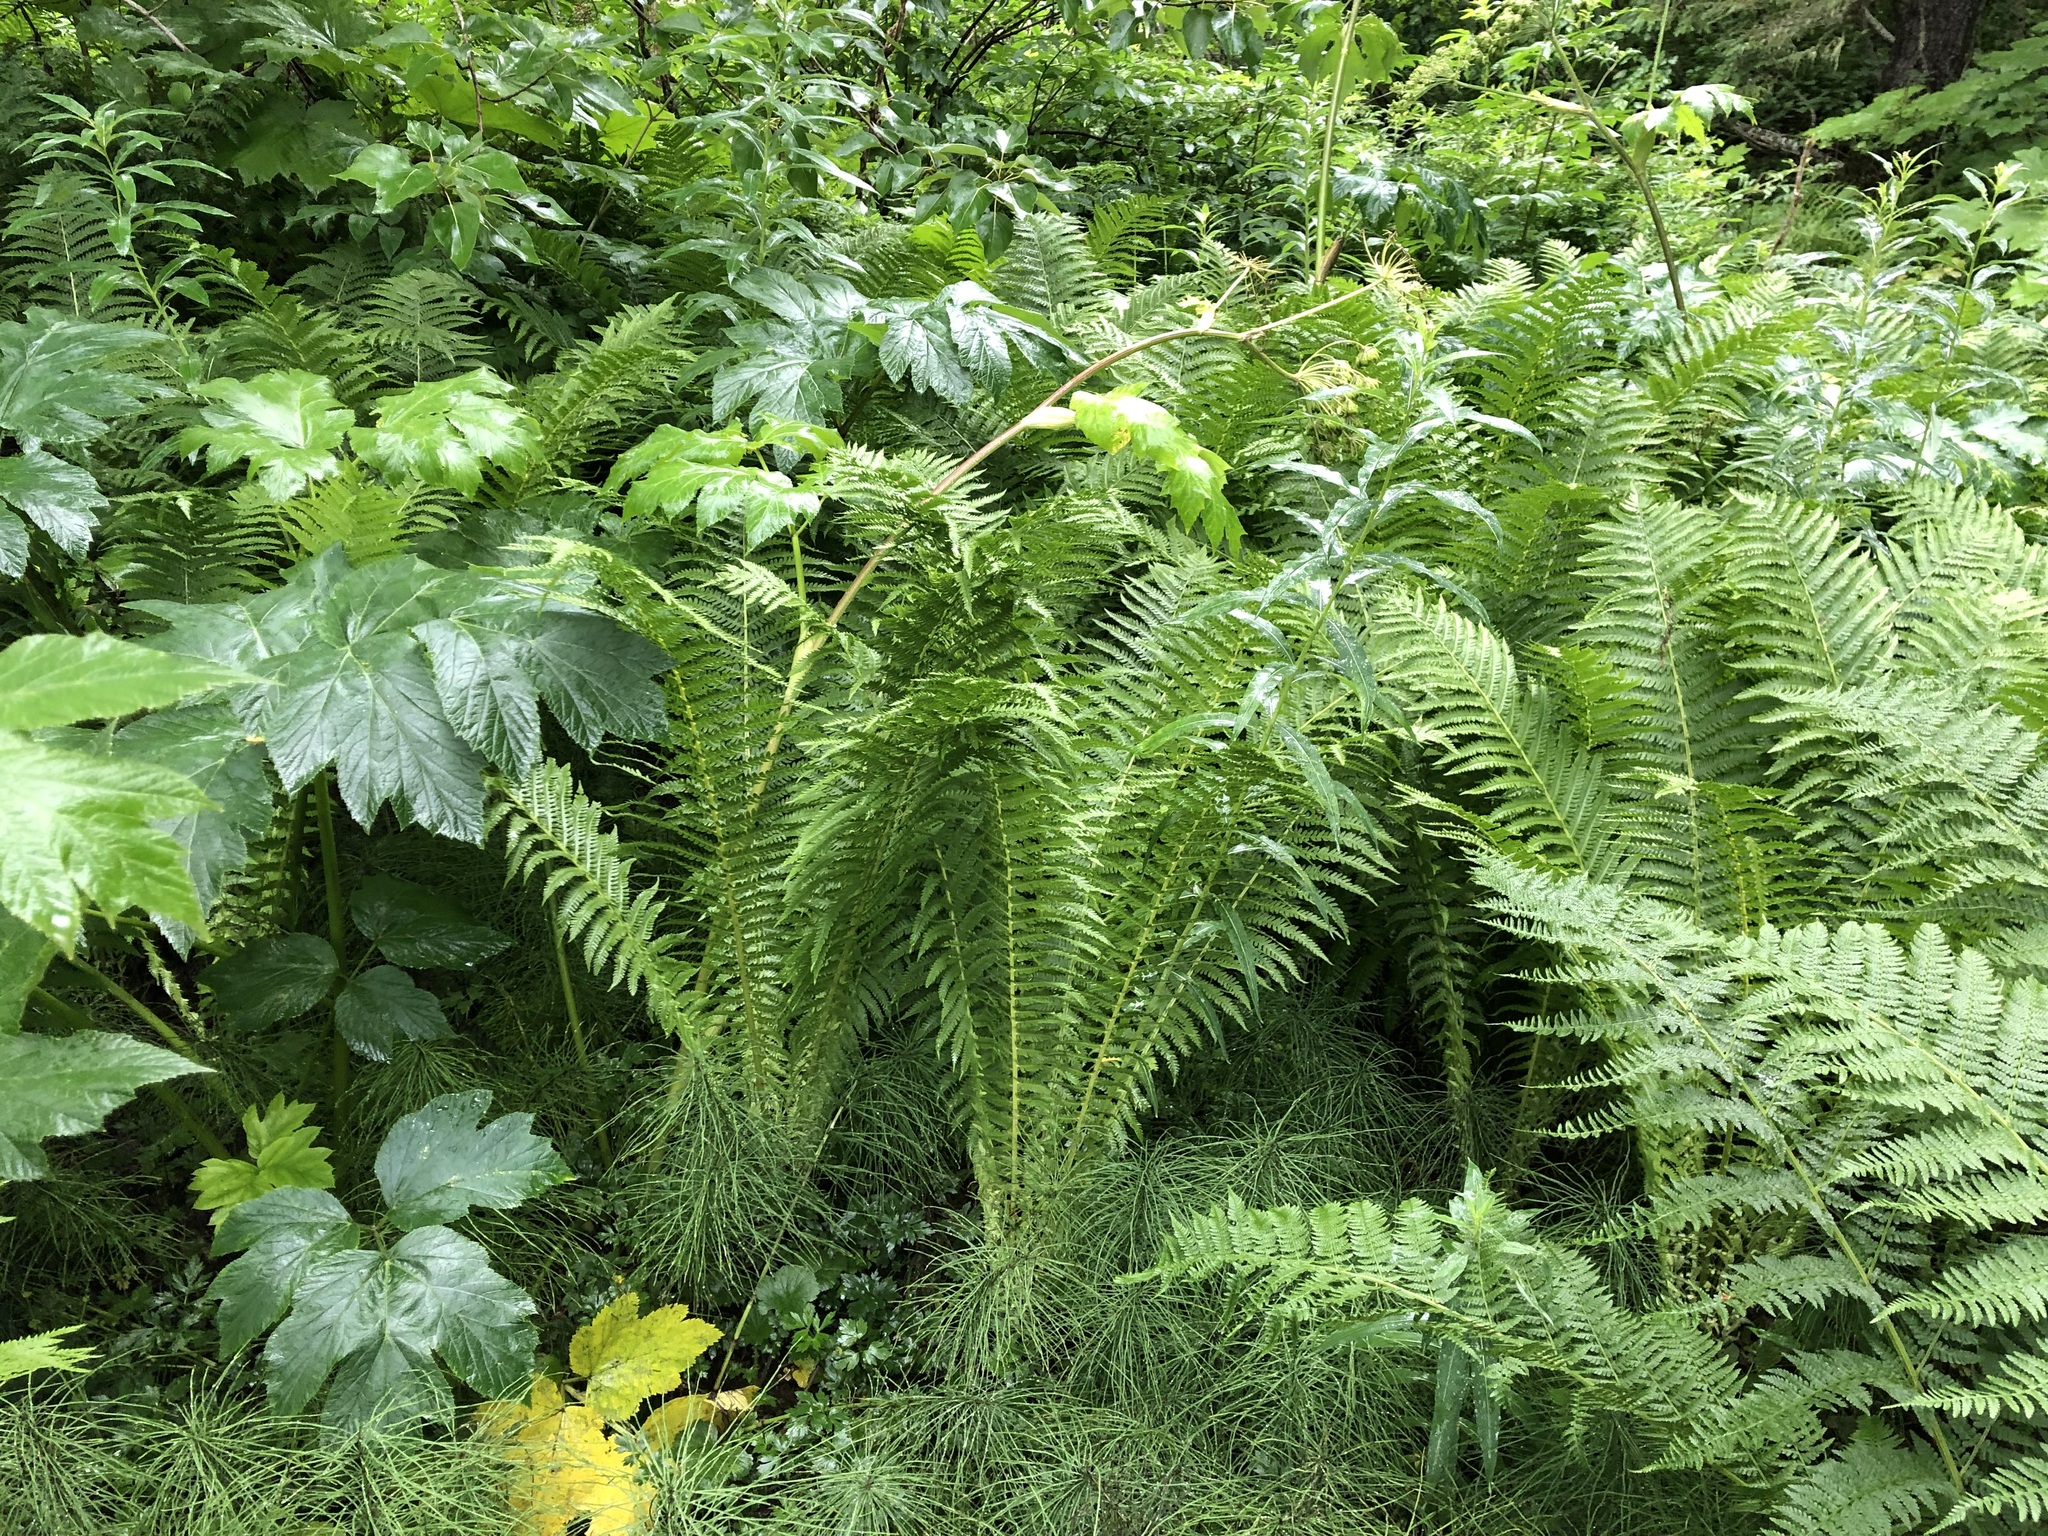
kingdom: Plantae
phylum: Tracheophyta
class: Polypodiopsida
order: Polypodiales
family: Onocleaceae
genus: Matteuccia
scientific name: Matteuccia struthiopteris
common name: Ostrich fern
